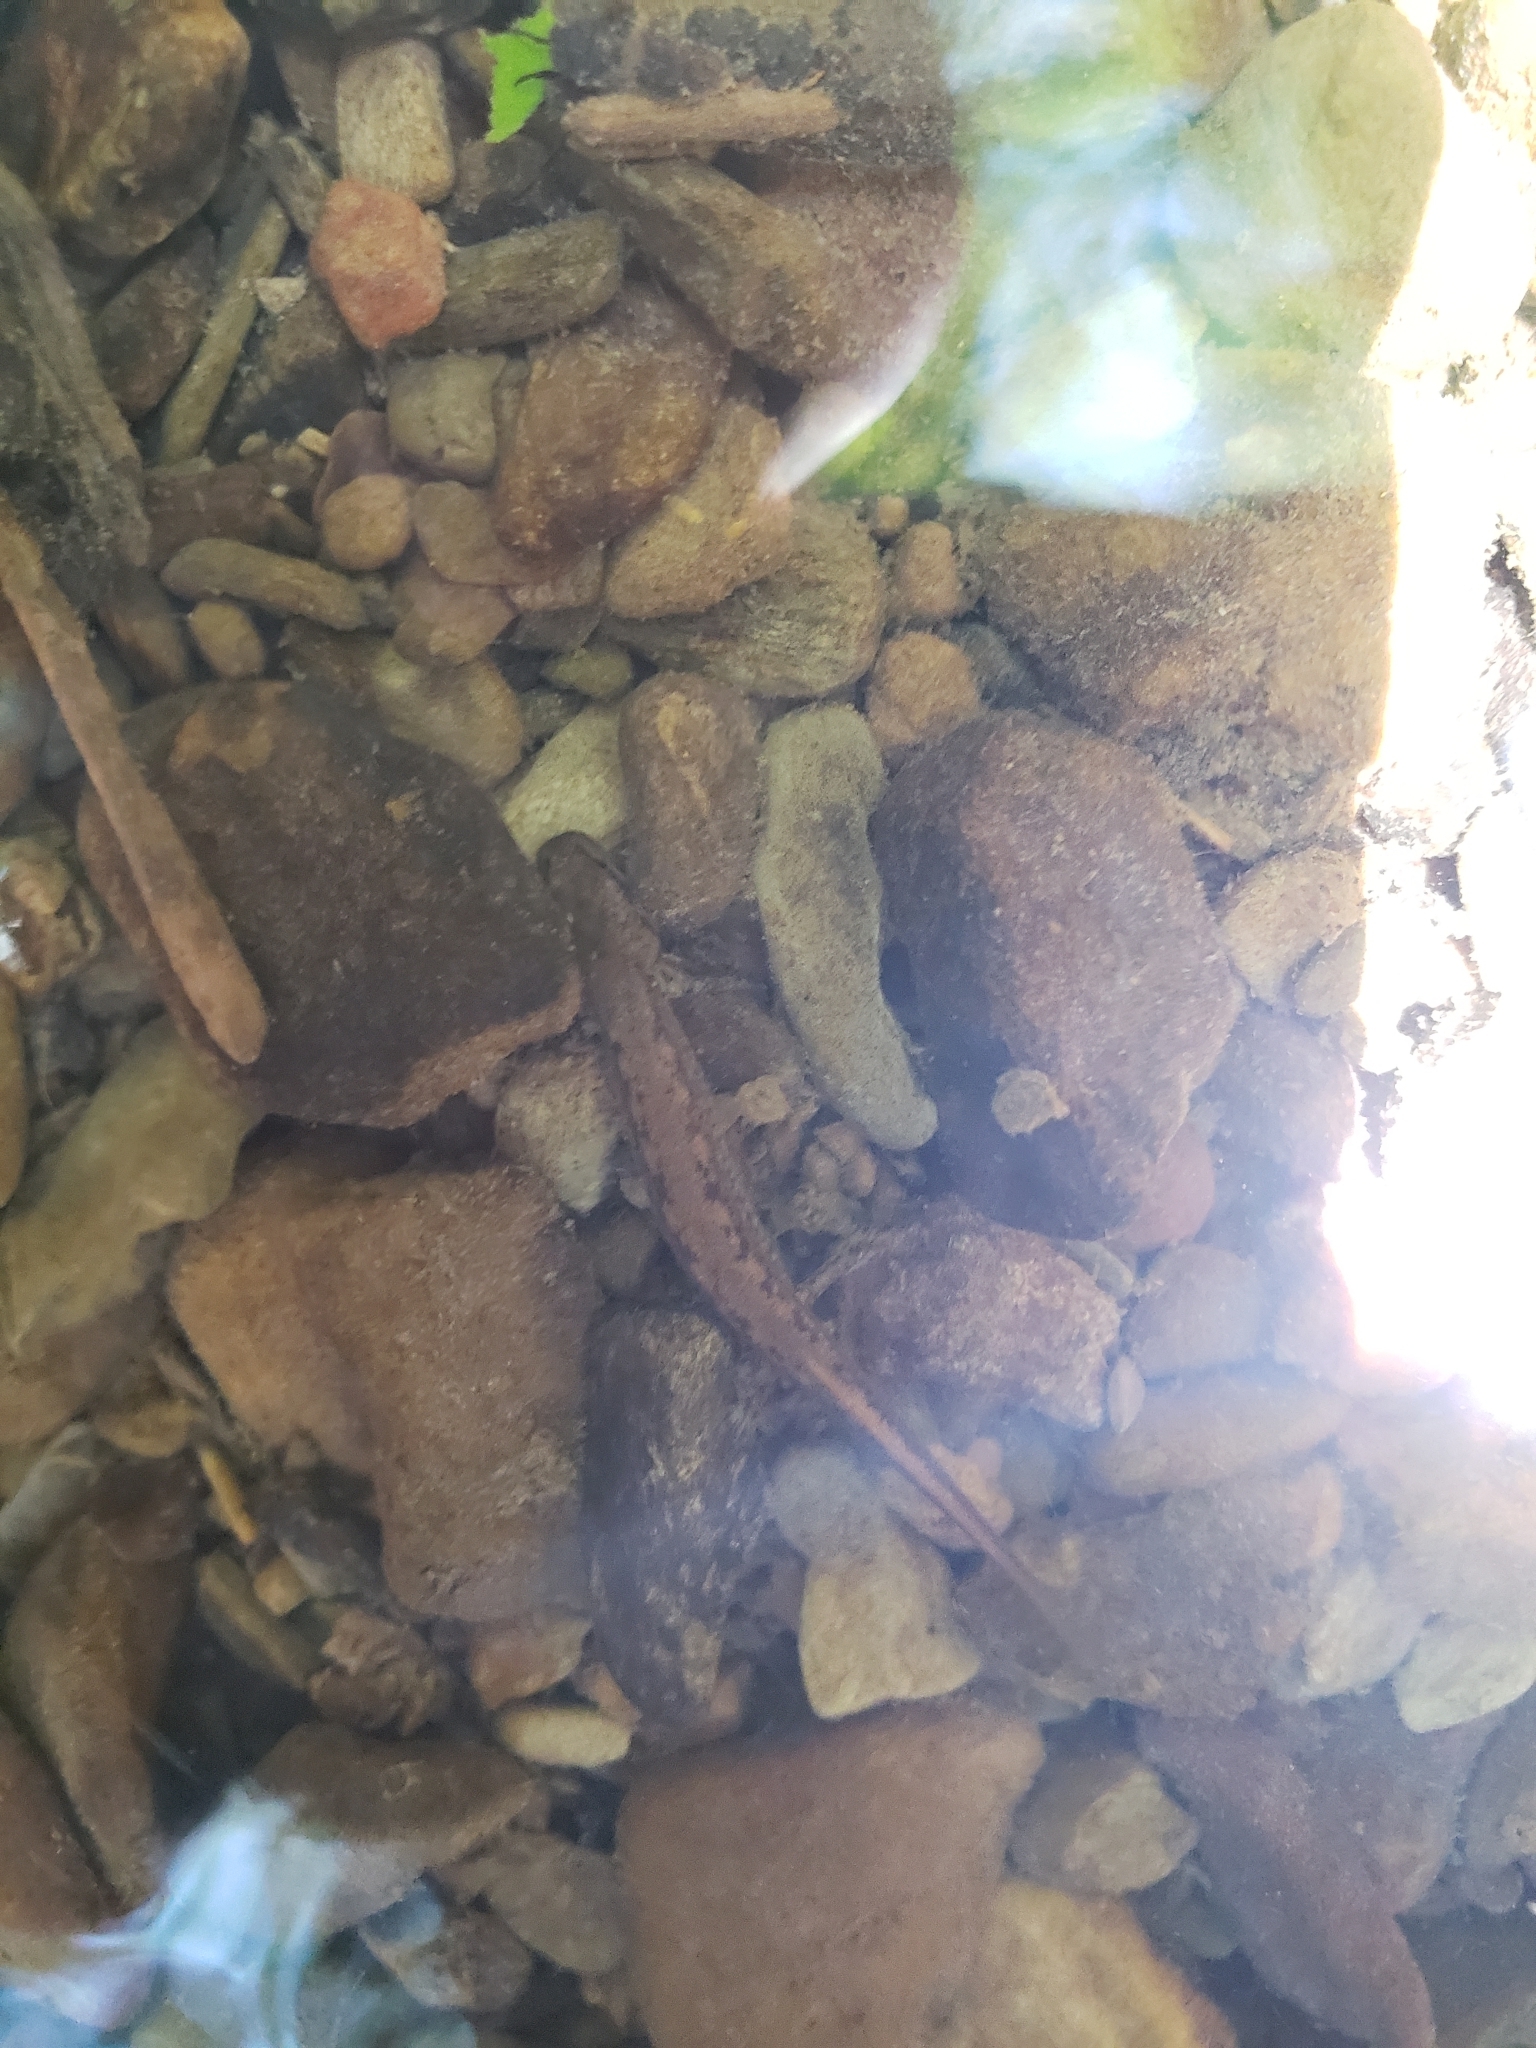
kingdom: Animalia
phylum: Chordata
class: Amphibia
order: Caudata
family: Plethodontidae
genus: Eurycea
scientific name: Eurycea bislineata
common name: Northern two-lined salamander
